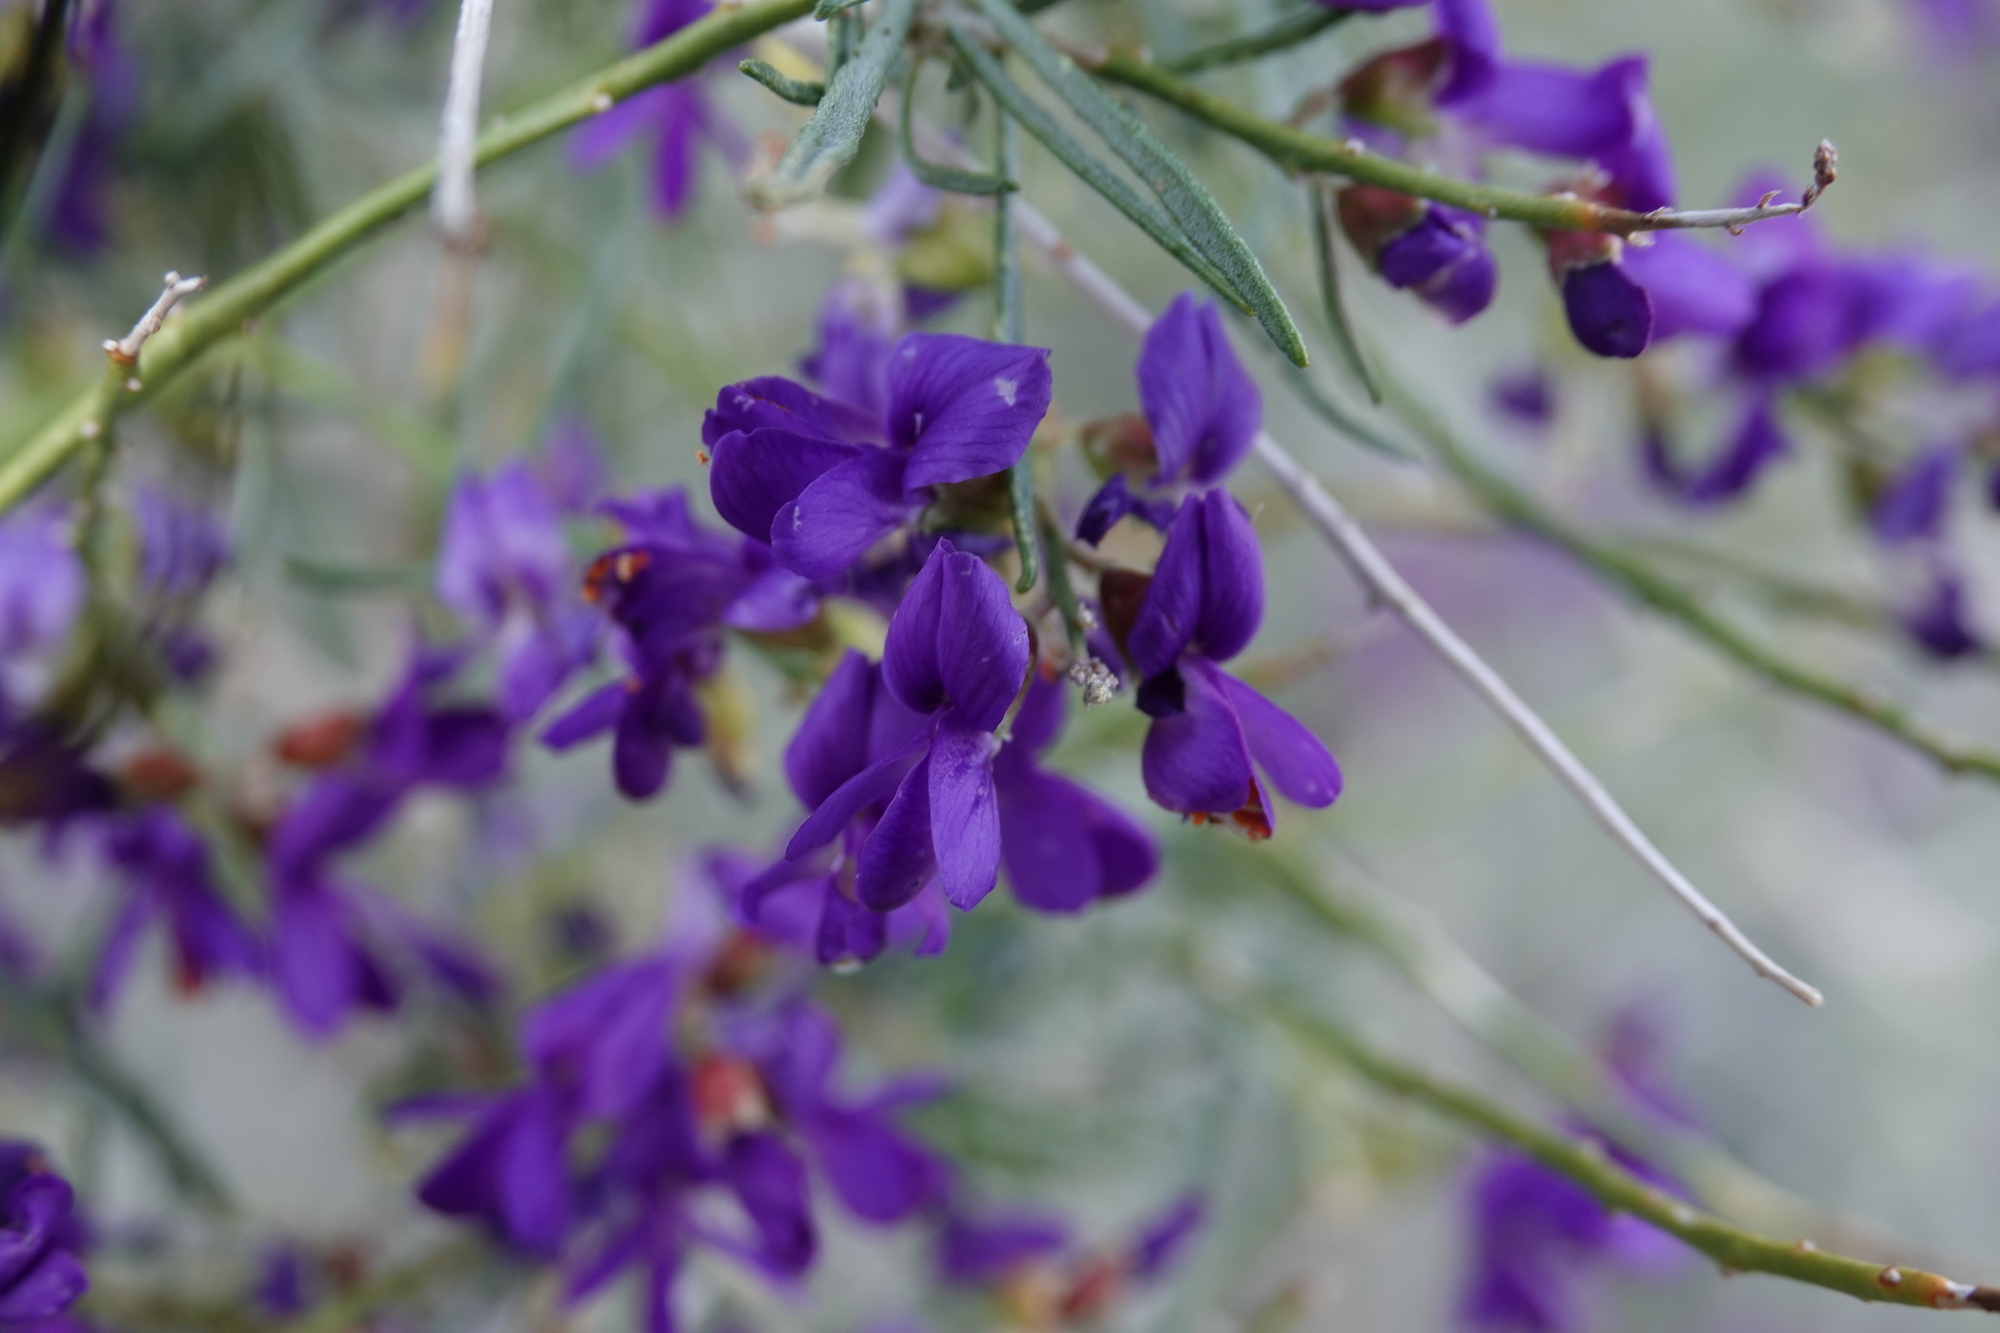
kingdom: Plantae
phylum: Tracheophyta
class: Magnoliopsida
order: Fabales
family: Fabaceae
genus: Psorothamnus
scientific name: Psorothamnus schottii
